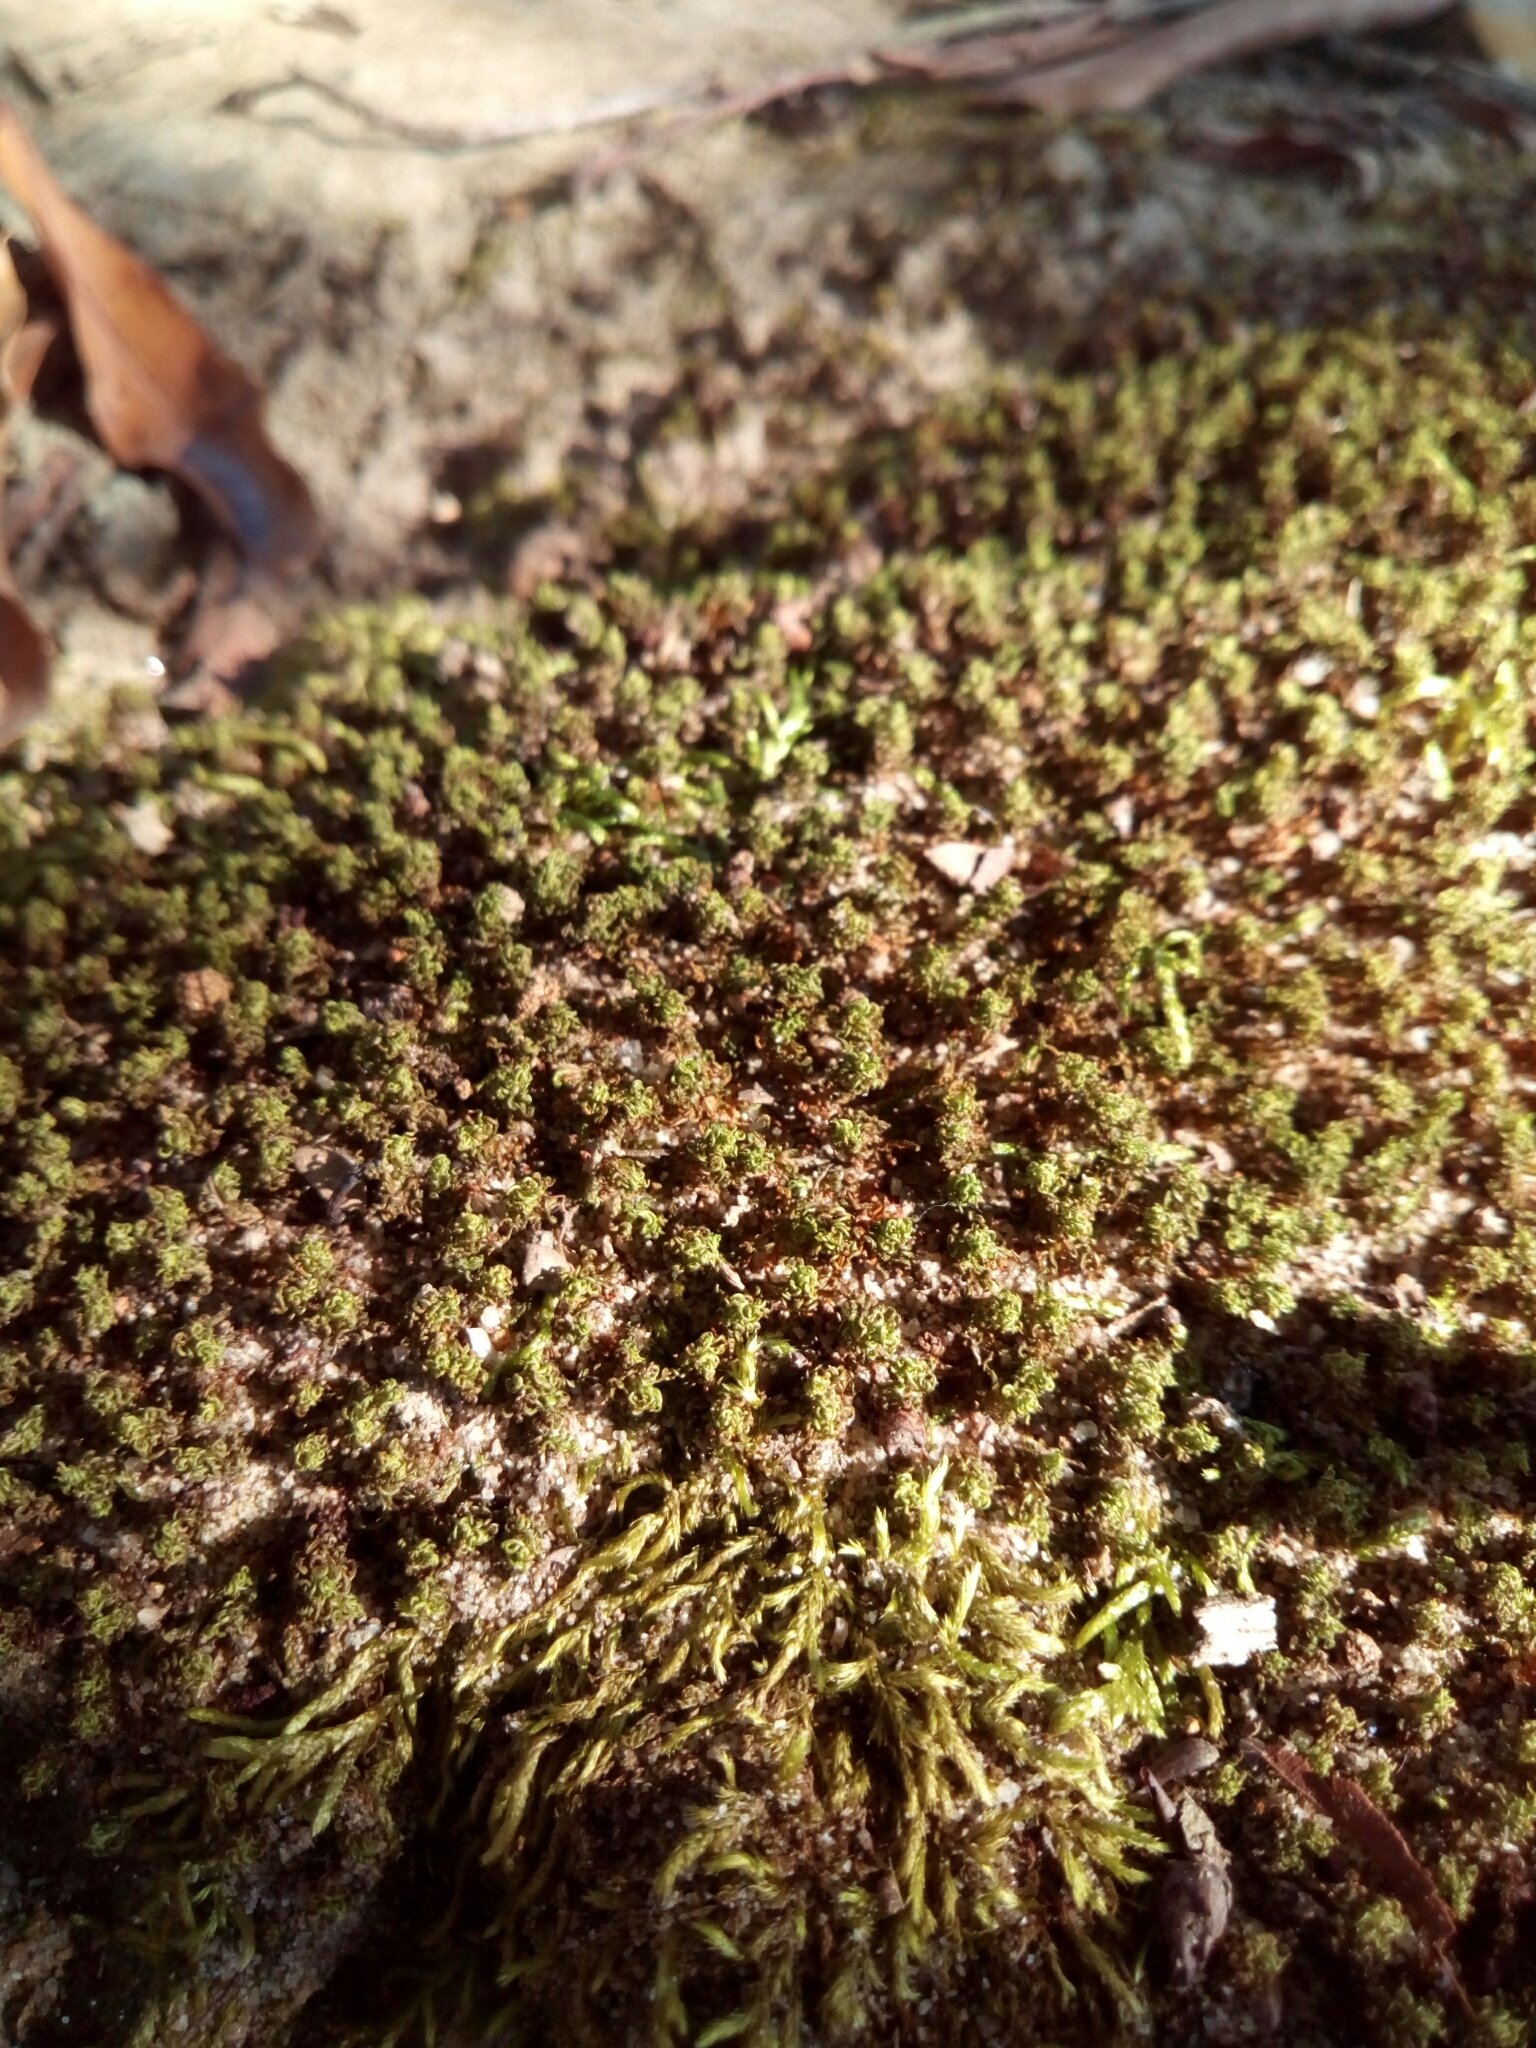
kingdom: Plantae
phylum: Bryophyta
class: Bryopsida
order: Orthotrichales
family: Orthotrichaceae
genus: Ulota
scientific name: Ulota crispa
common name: Crisped pincushion moss
